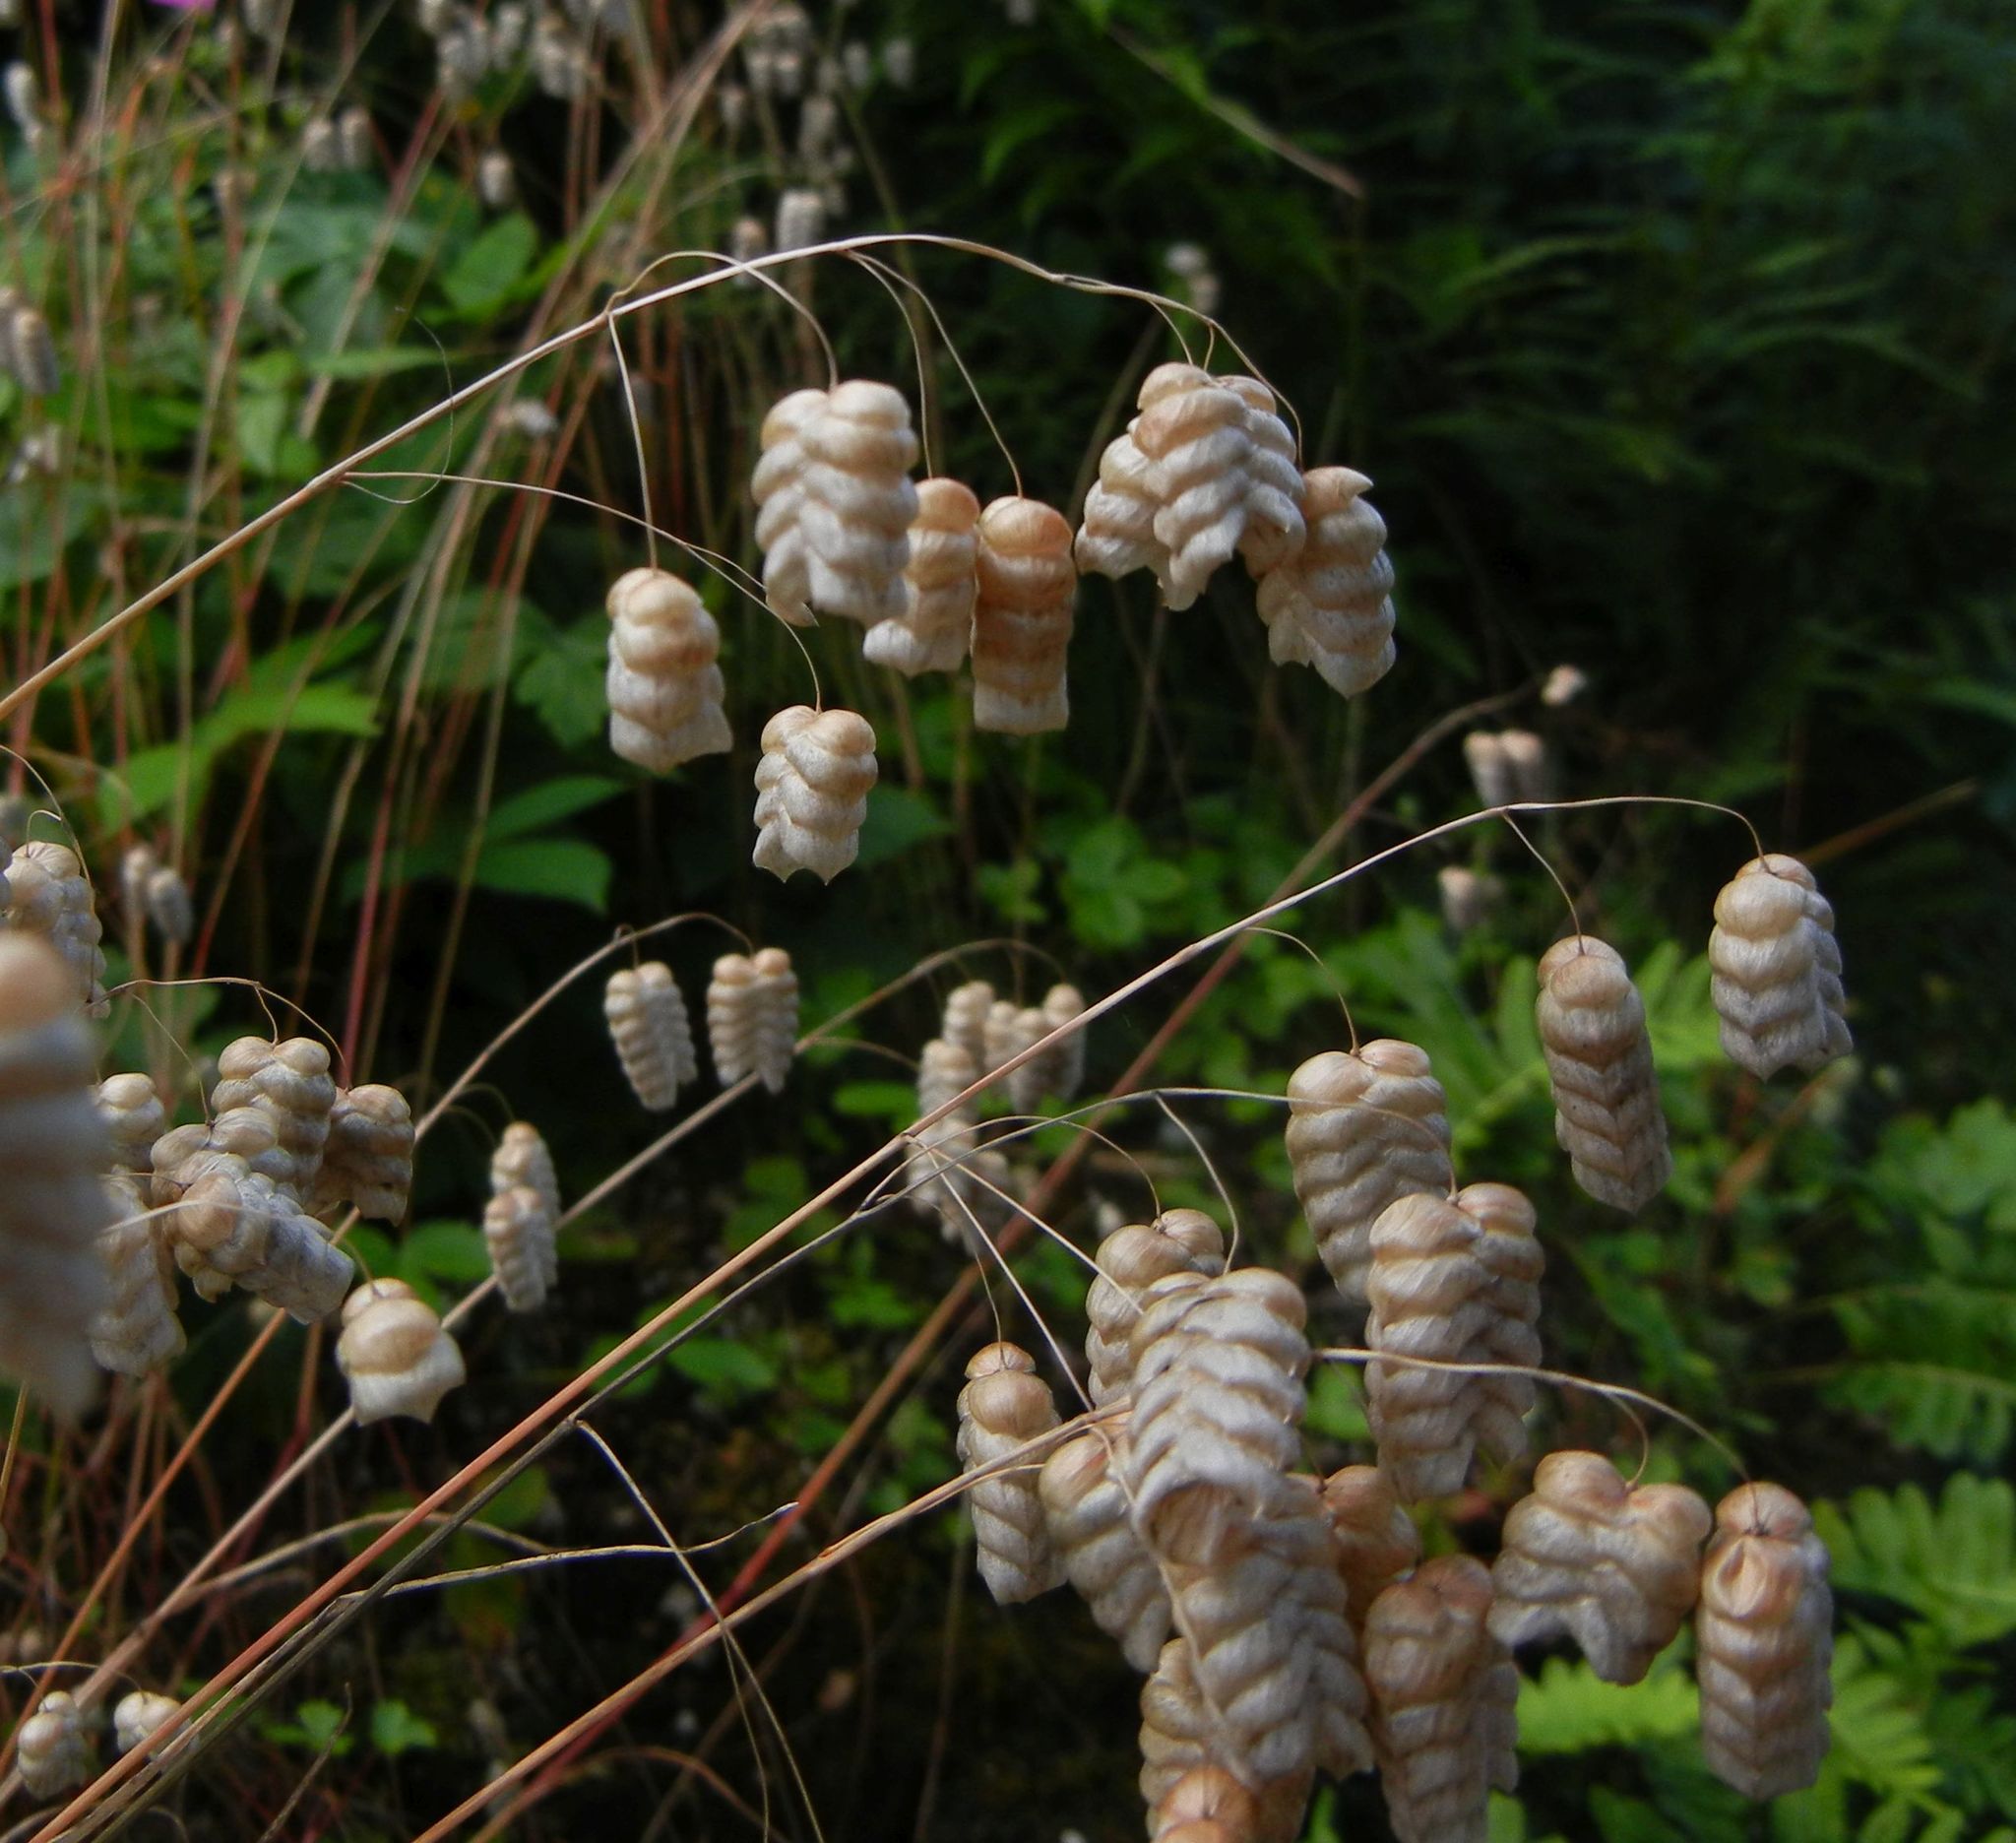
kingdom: Plantae
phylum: Tracheophyta
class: Liliopsida
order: Poales
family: Poaceae
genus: Briza
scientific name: Briza maxima
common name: Big quakinggrass
